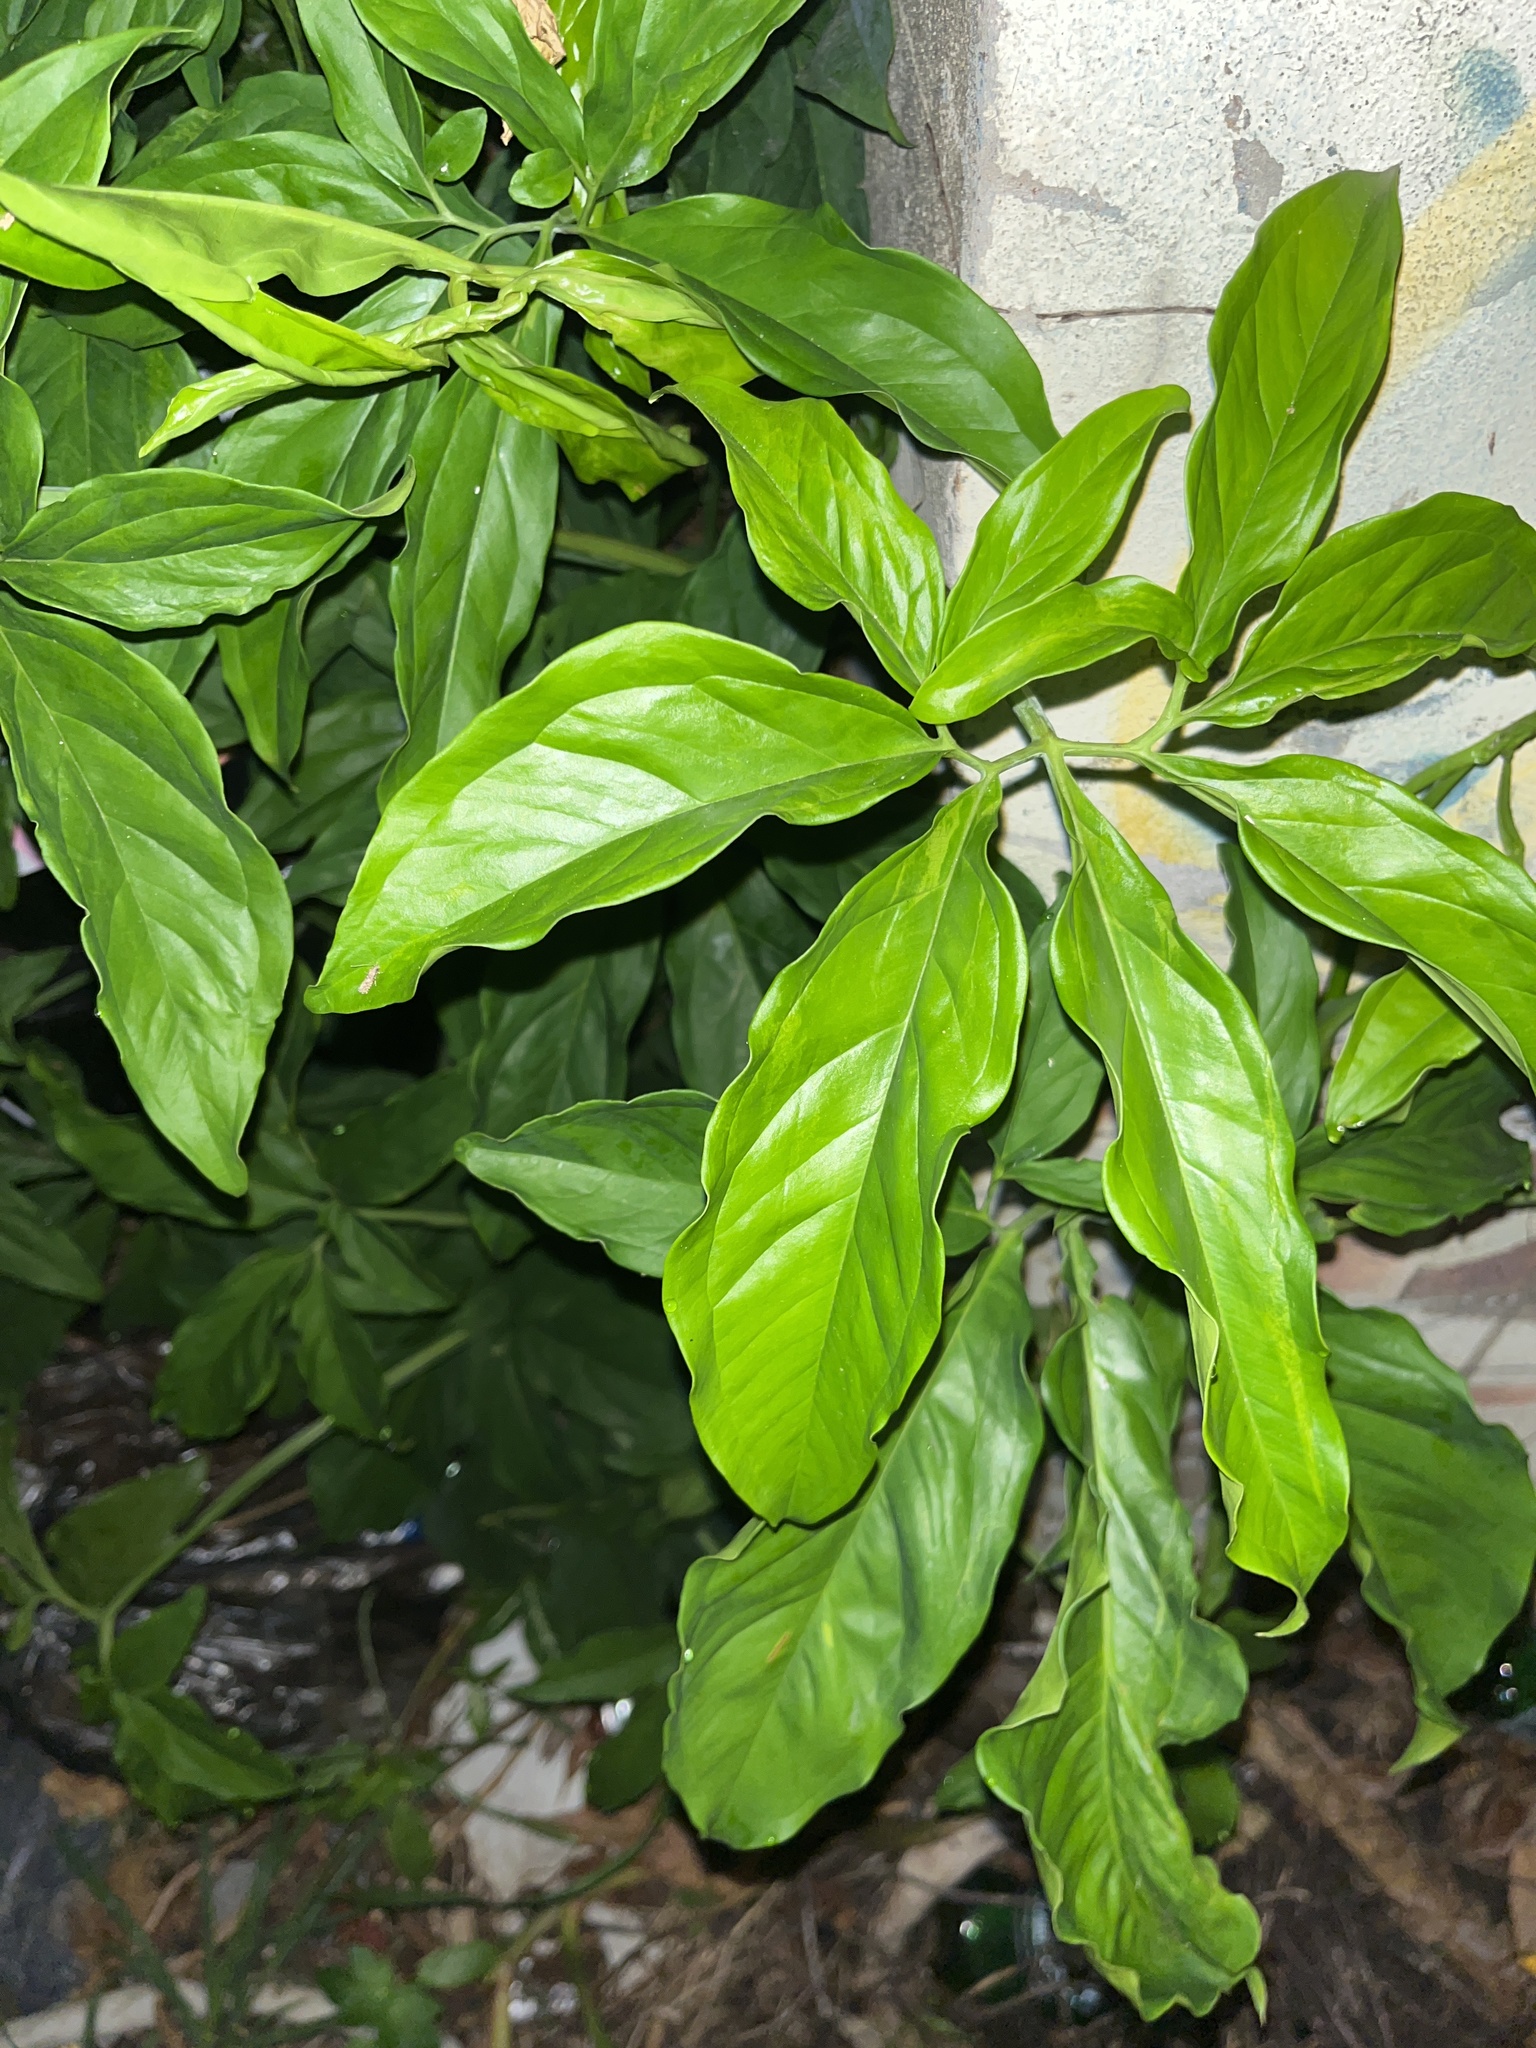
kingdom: Plantae
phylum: Tracheophyta
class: Liliopsida
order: Alismatales
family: Araceae
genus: Syngonium
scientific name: Syngonium podophyllum
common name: American evergreen
